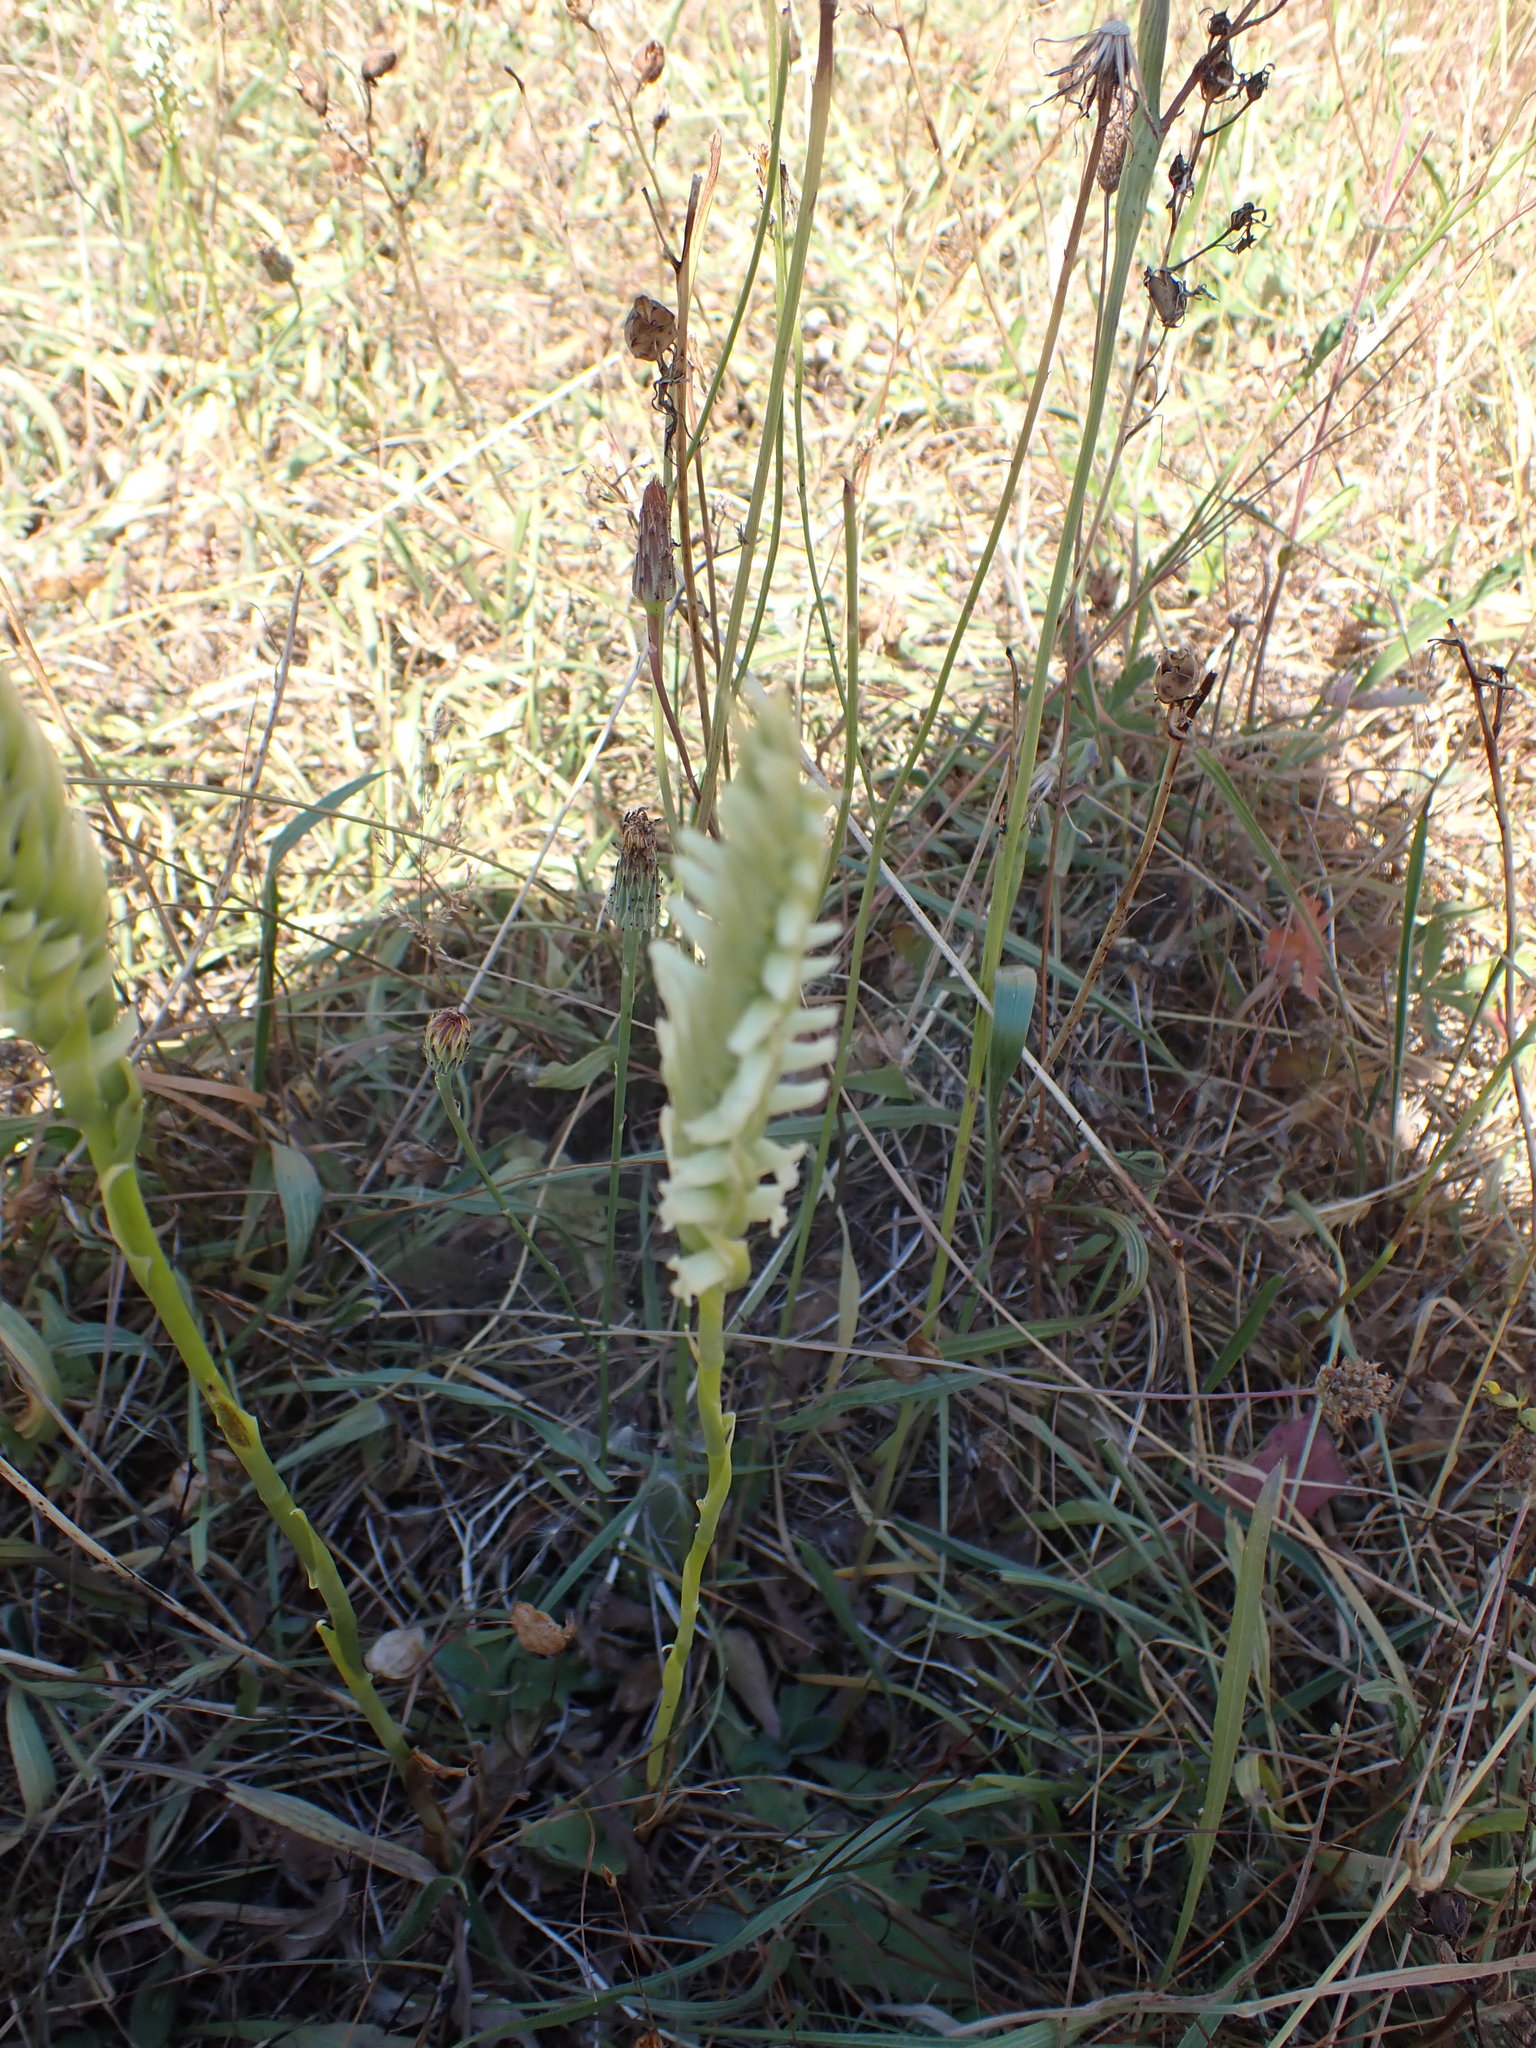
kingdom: Plantae
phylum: Tracheophyta
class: Liliopsida
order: Asparagales
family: Orchidaceae
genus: Spiranthes
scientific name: Spiranthes romanzoffiana
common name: Irish lady's-tresses
